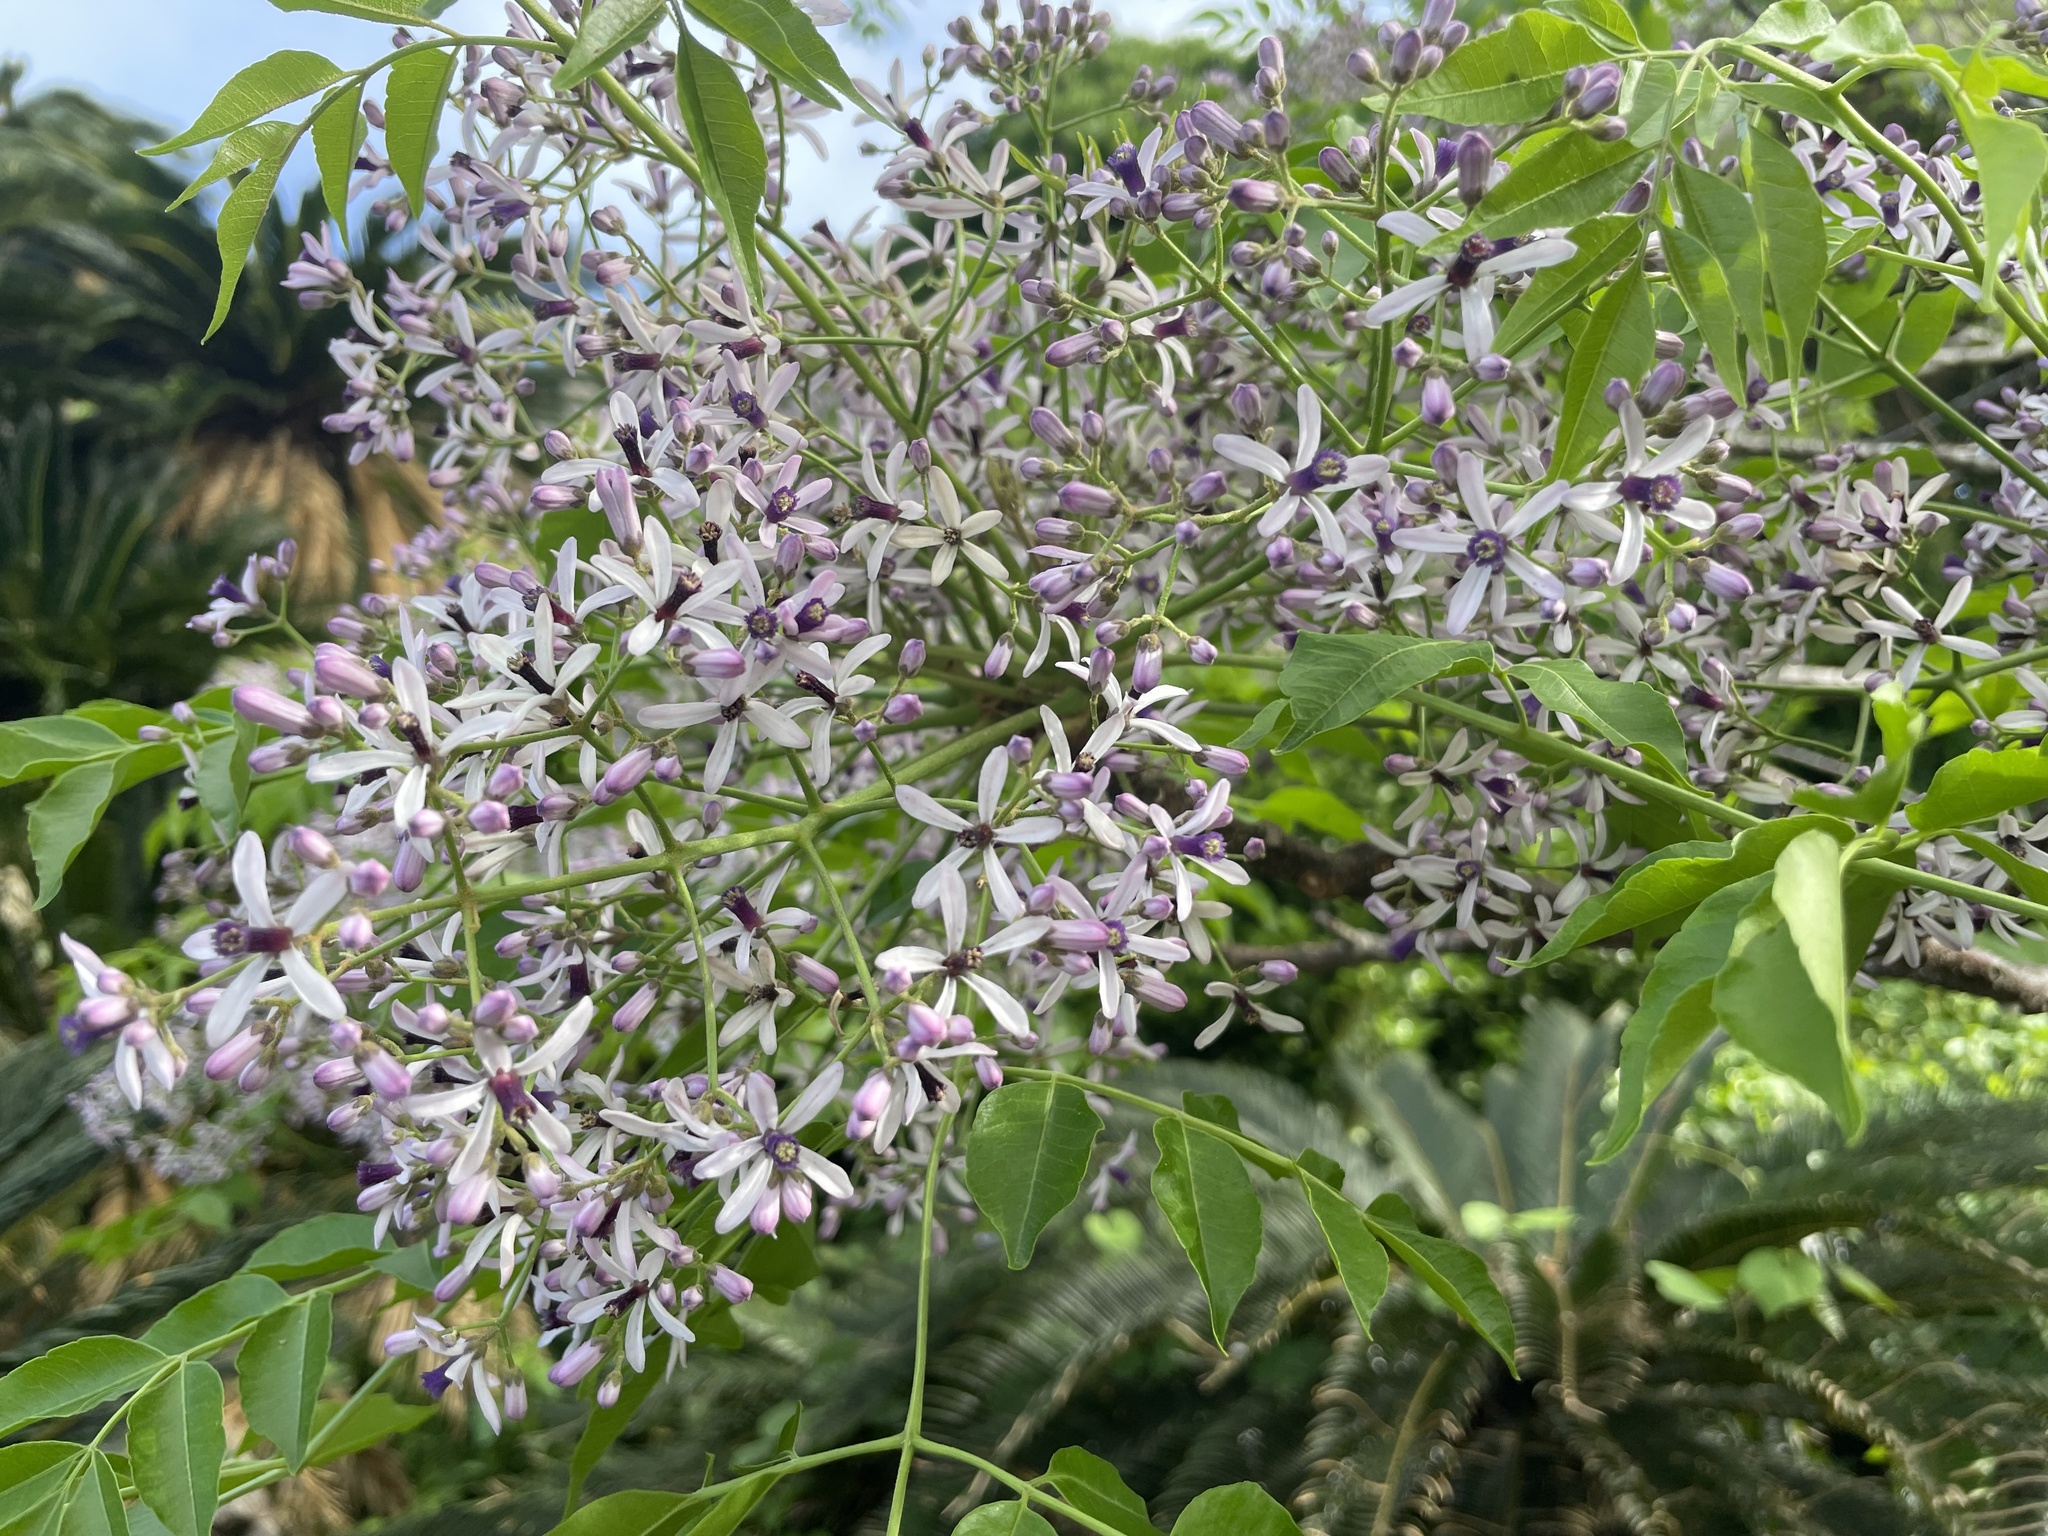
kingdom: Plantae
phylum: Tracheophyta
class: Magnoliopsida
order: Sapindales
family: Meliaceae
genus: Melia
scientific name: Melia azedarach
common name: Chinaberrytree
